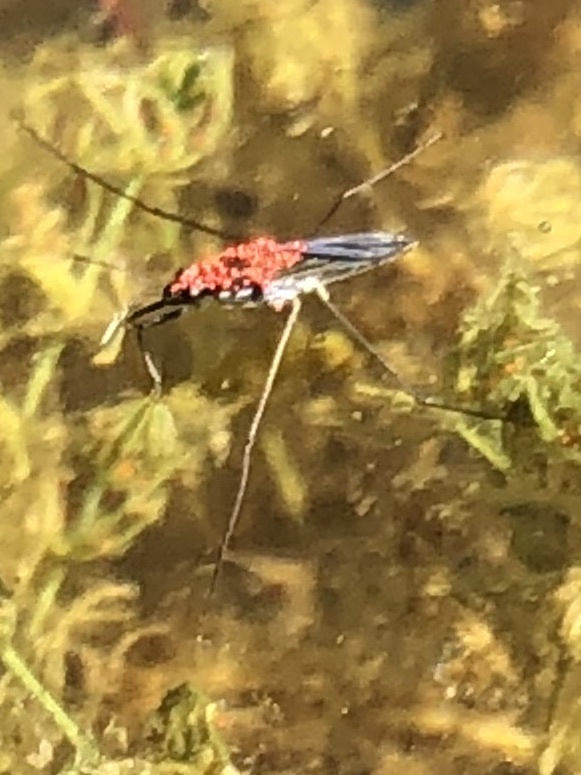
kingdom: Animalia
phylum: Arthropoda
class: Arachnida
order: Trombidiformes
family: Limnocharidae
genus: Limnochares
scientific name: Limnochares aquatica
